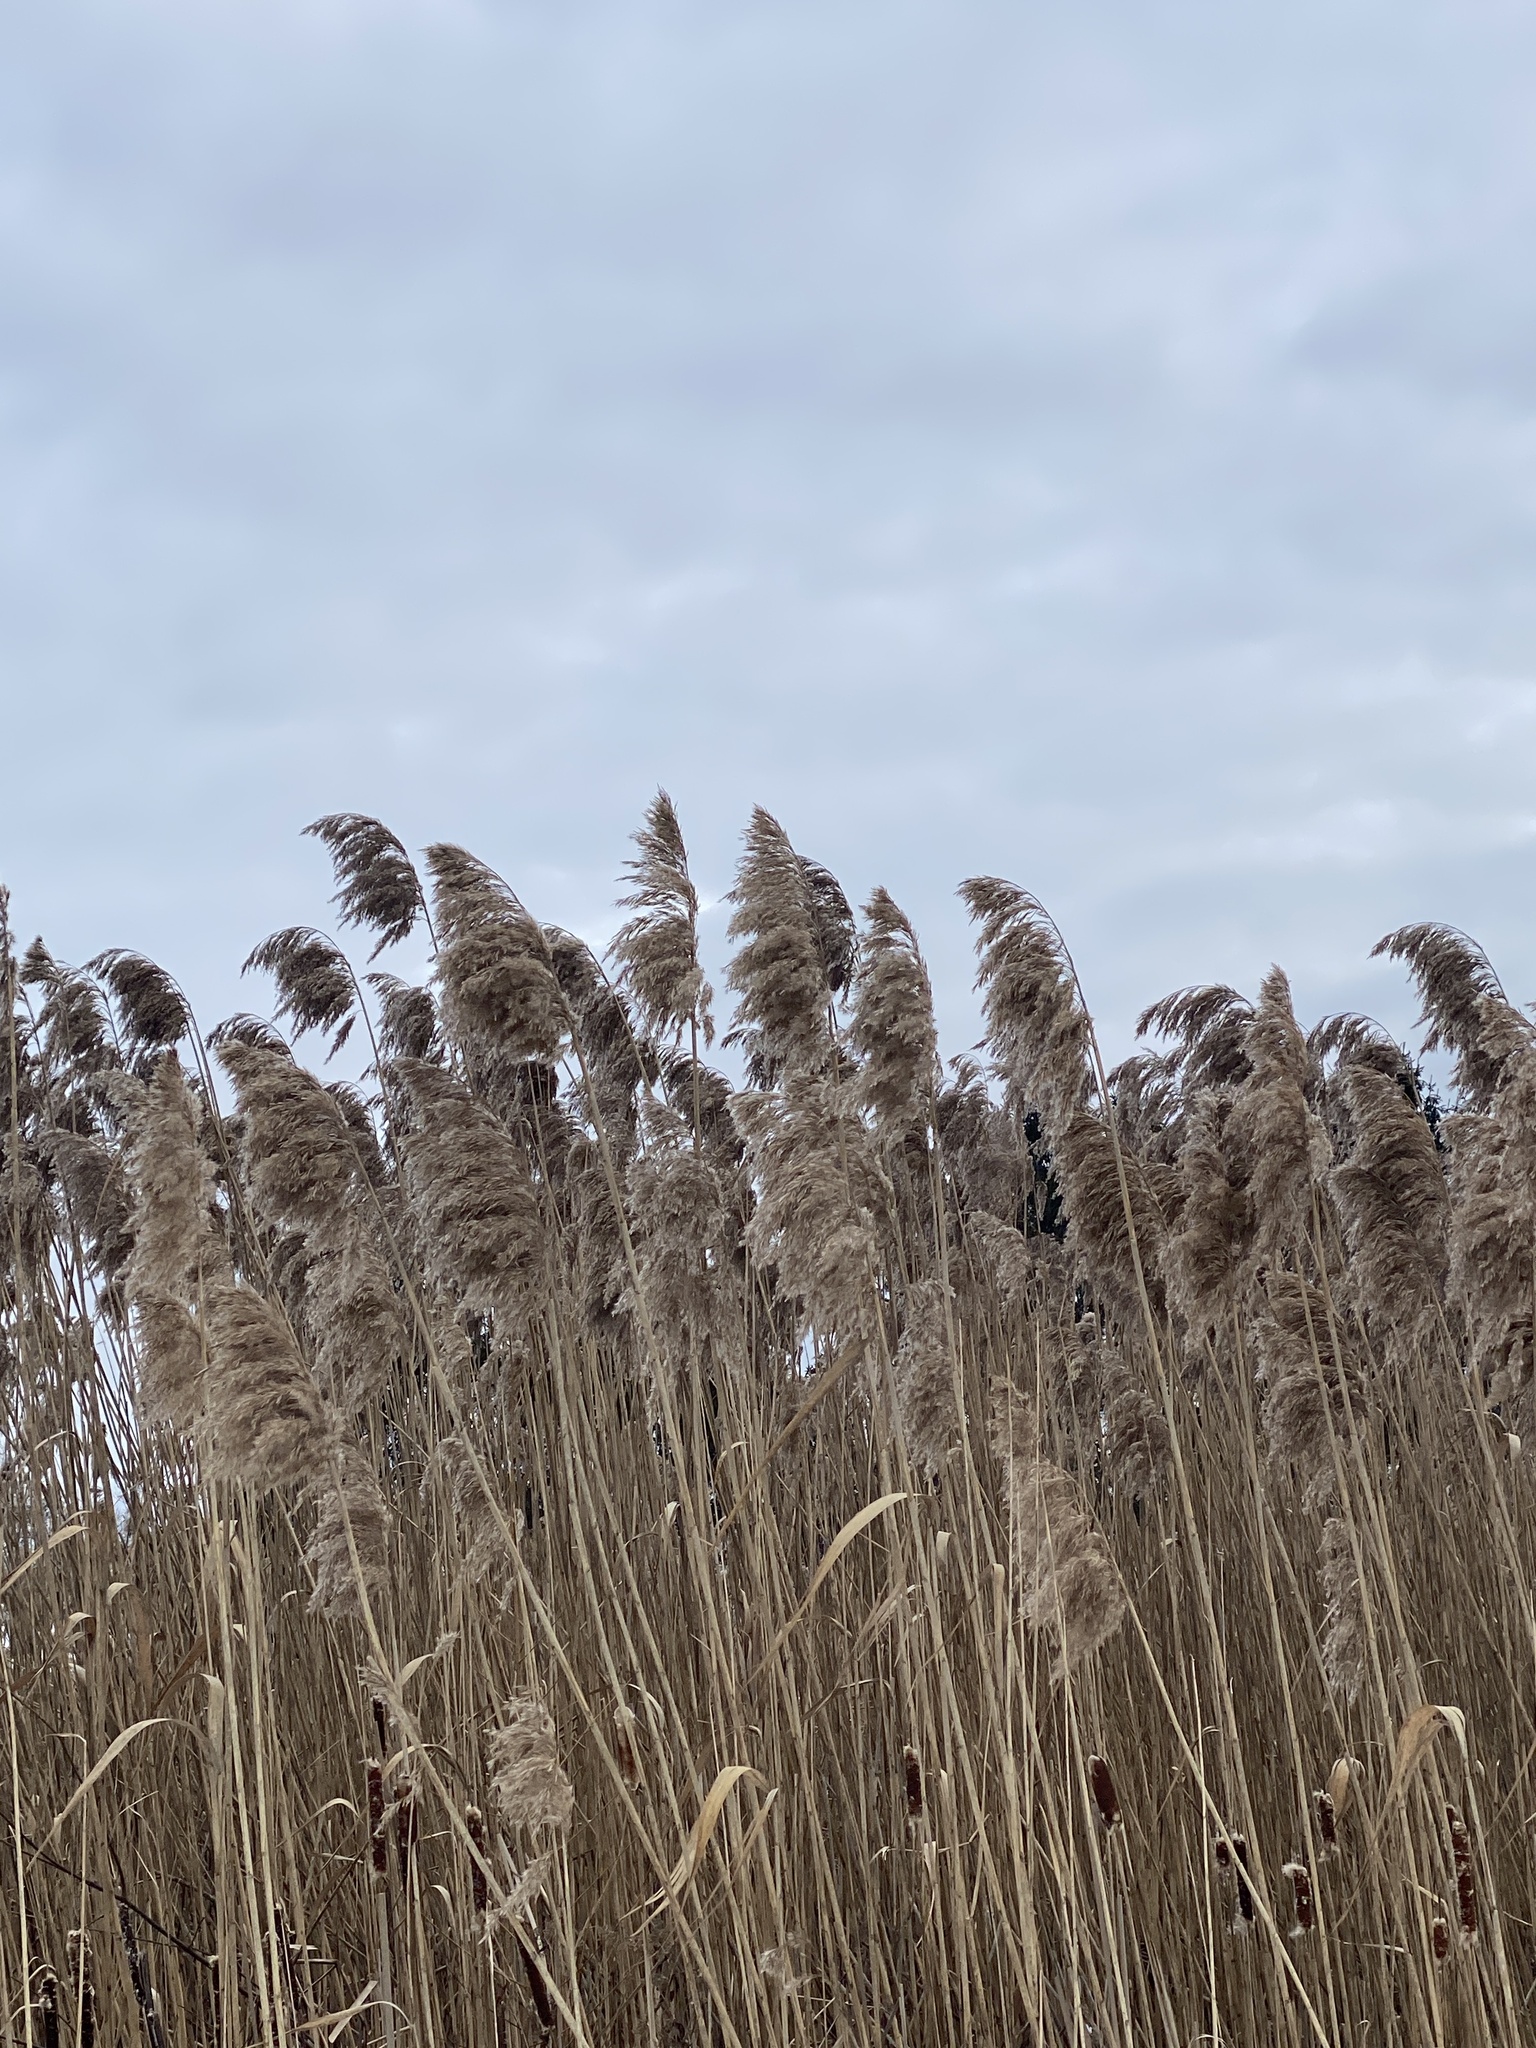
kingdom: Plantae
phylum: Tracheophyta
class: Liliopsida
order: Poales
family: Poaceae
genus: Phragmites
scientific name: Phragmites australis
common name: Common reed
